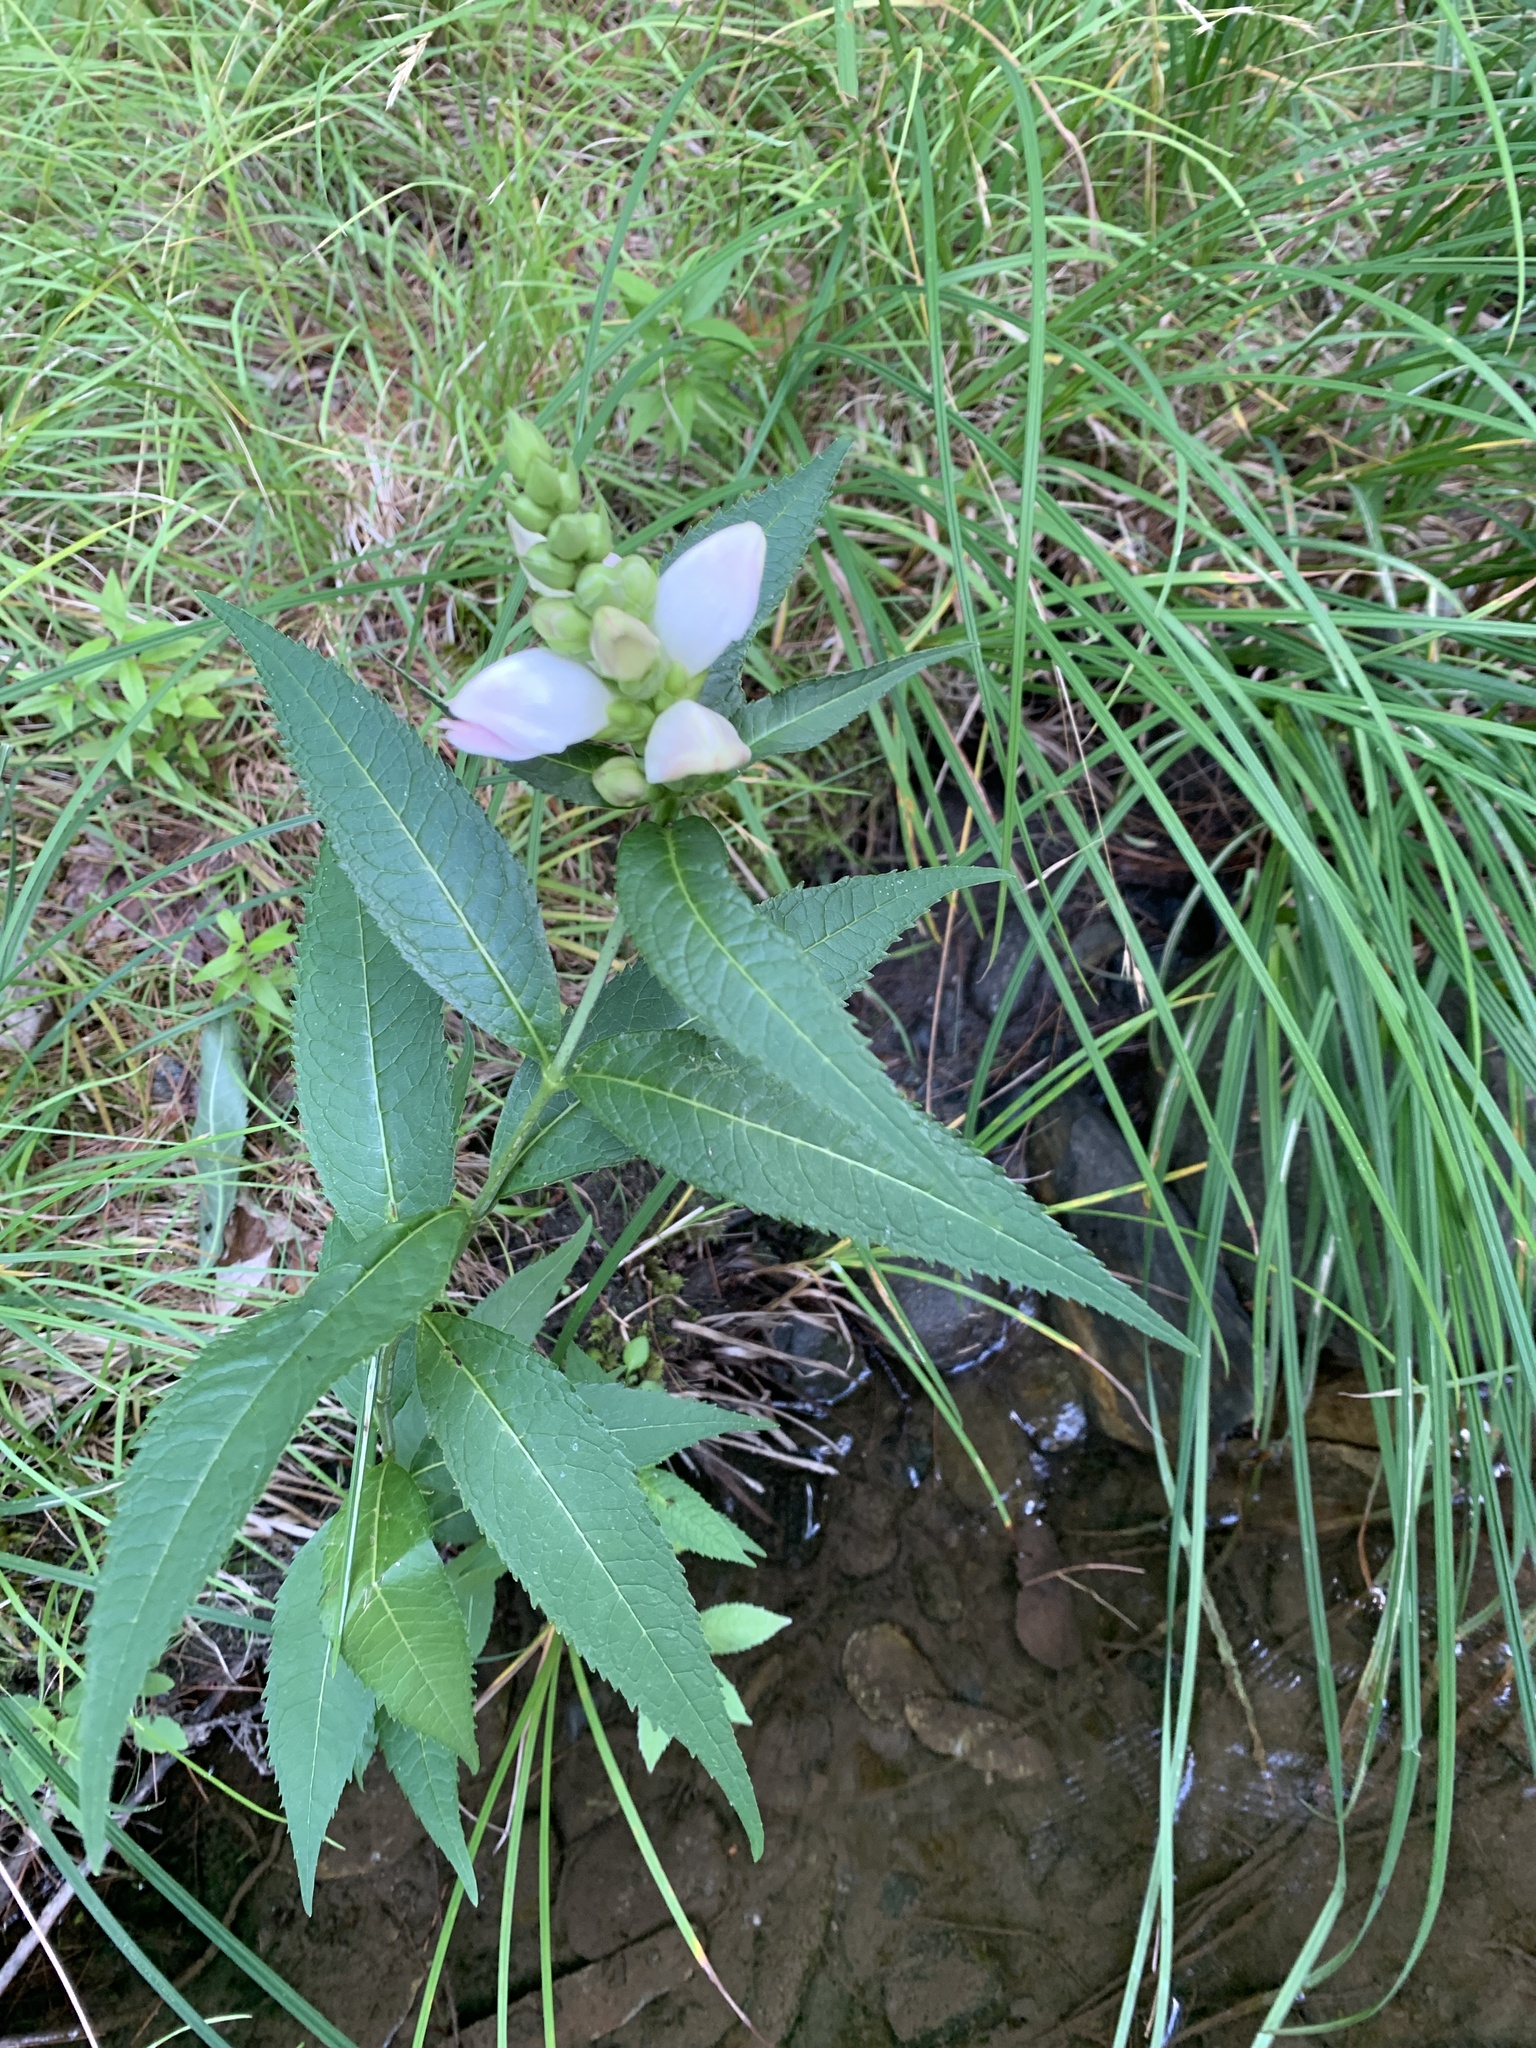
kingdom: Plantae
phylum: Tracheophyta
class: Magnoliopsida
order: Lamiales
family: Plantaginaceae
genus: Chelone
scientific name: Chelone glabra
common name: Snakehead
